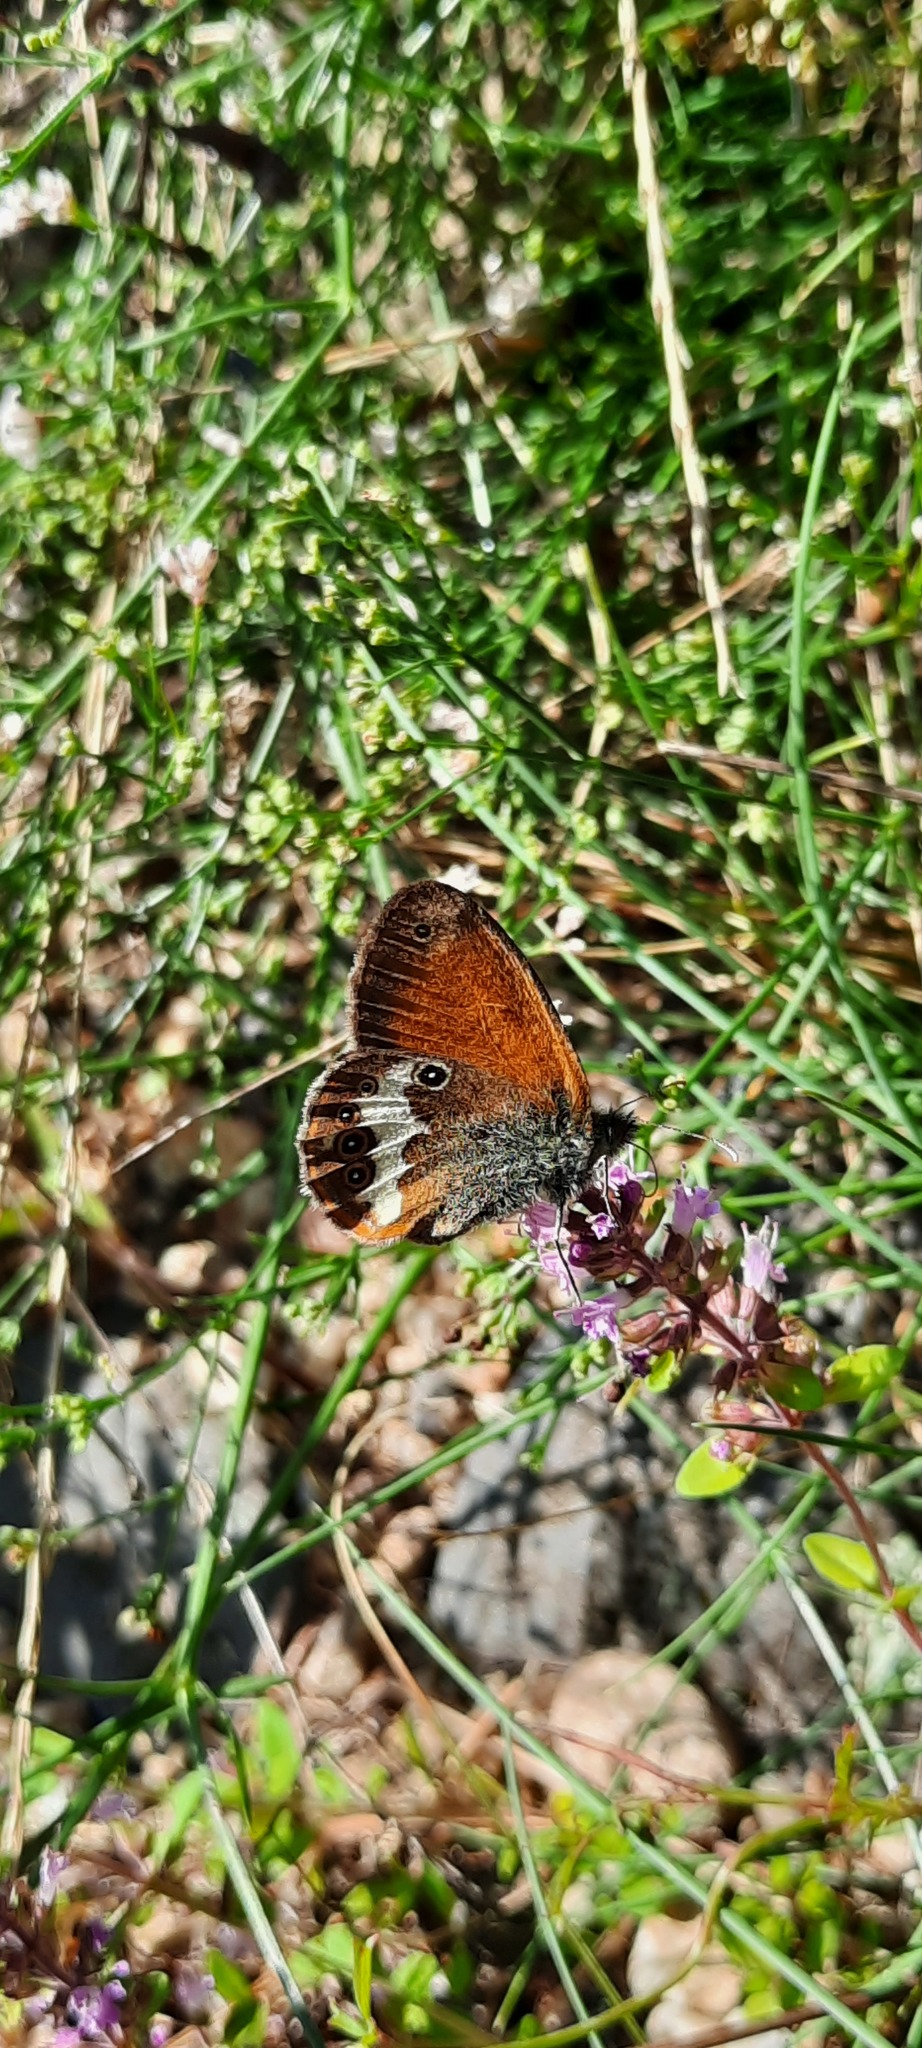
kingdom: Animalia
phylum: Arthropoda
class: Insecta
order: Lepidoptera
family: Nymphalidae
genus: Coenonympha
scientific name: Coenonympha arcania
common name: Pearly heath
